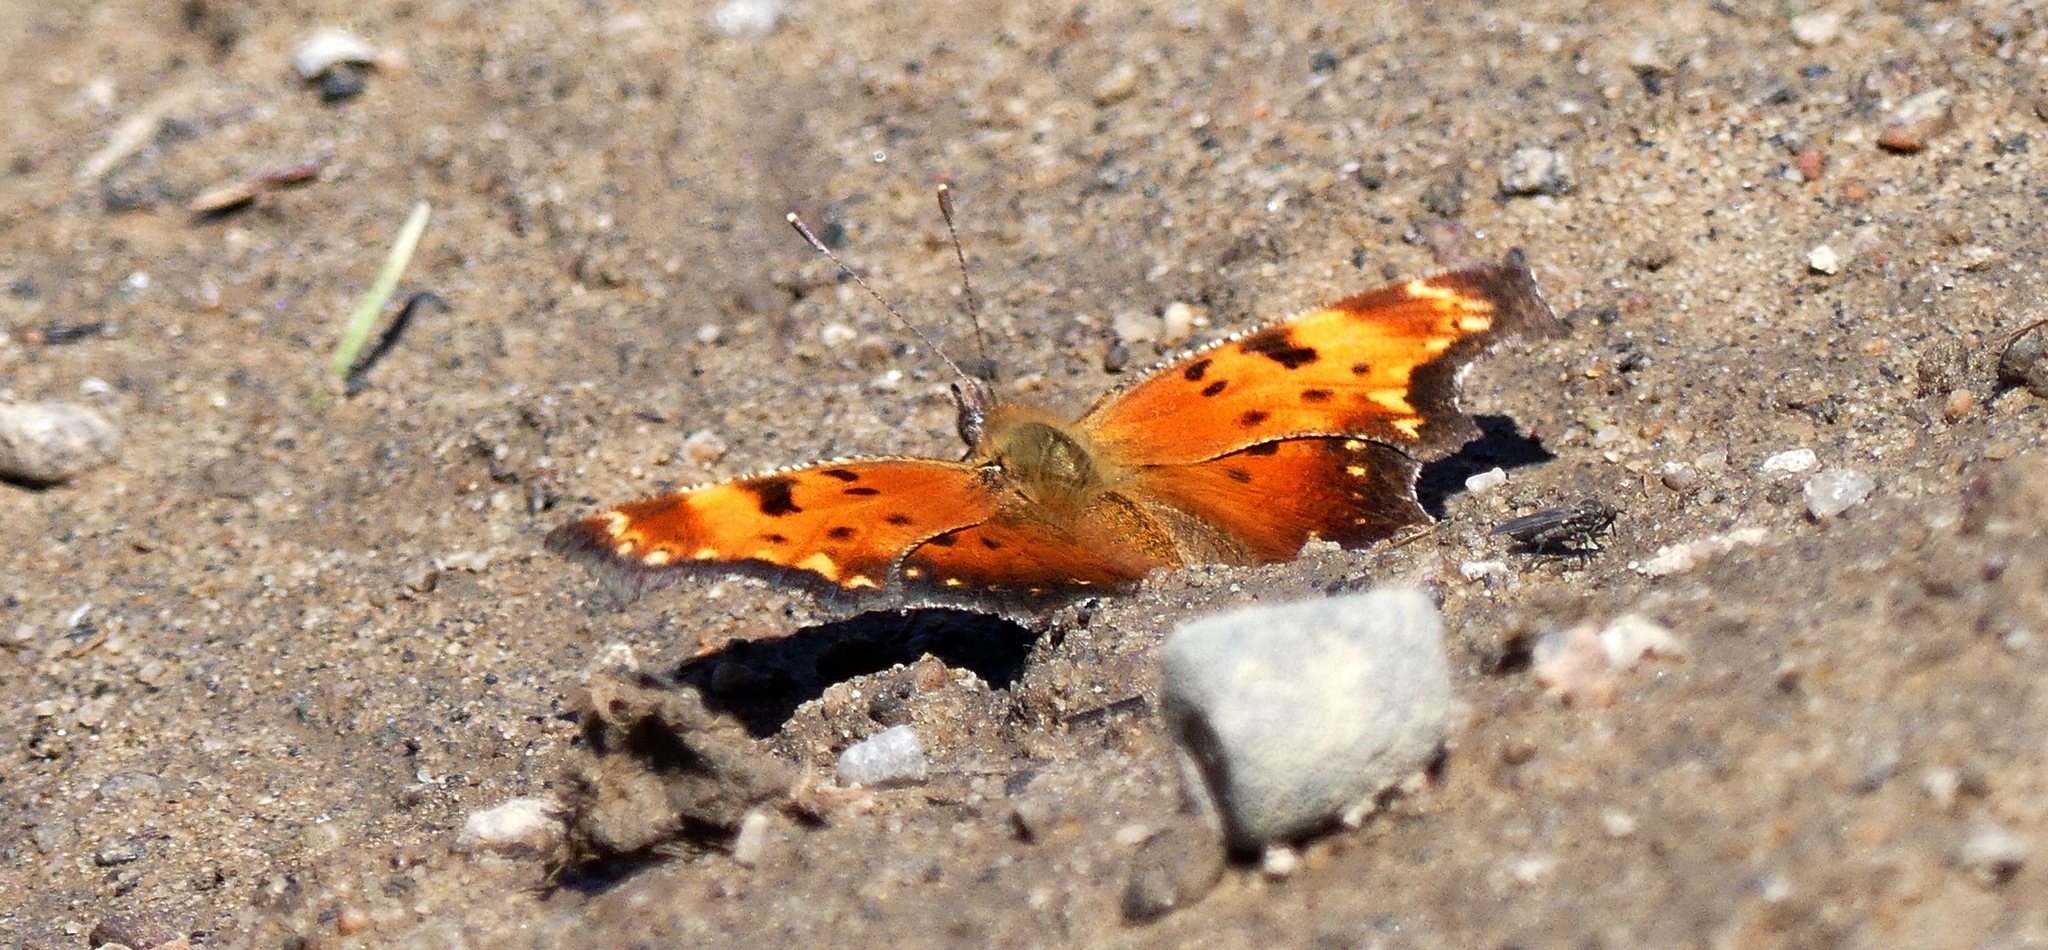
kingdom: Animalia
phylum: Arthropoda
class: Insecta
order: Lepidoptera
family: Nymphalidae
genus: Polygonia
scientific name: Polygonia progne
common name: Gray comma
